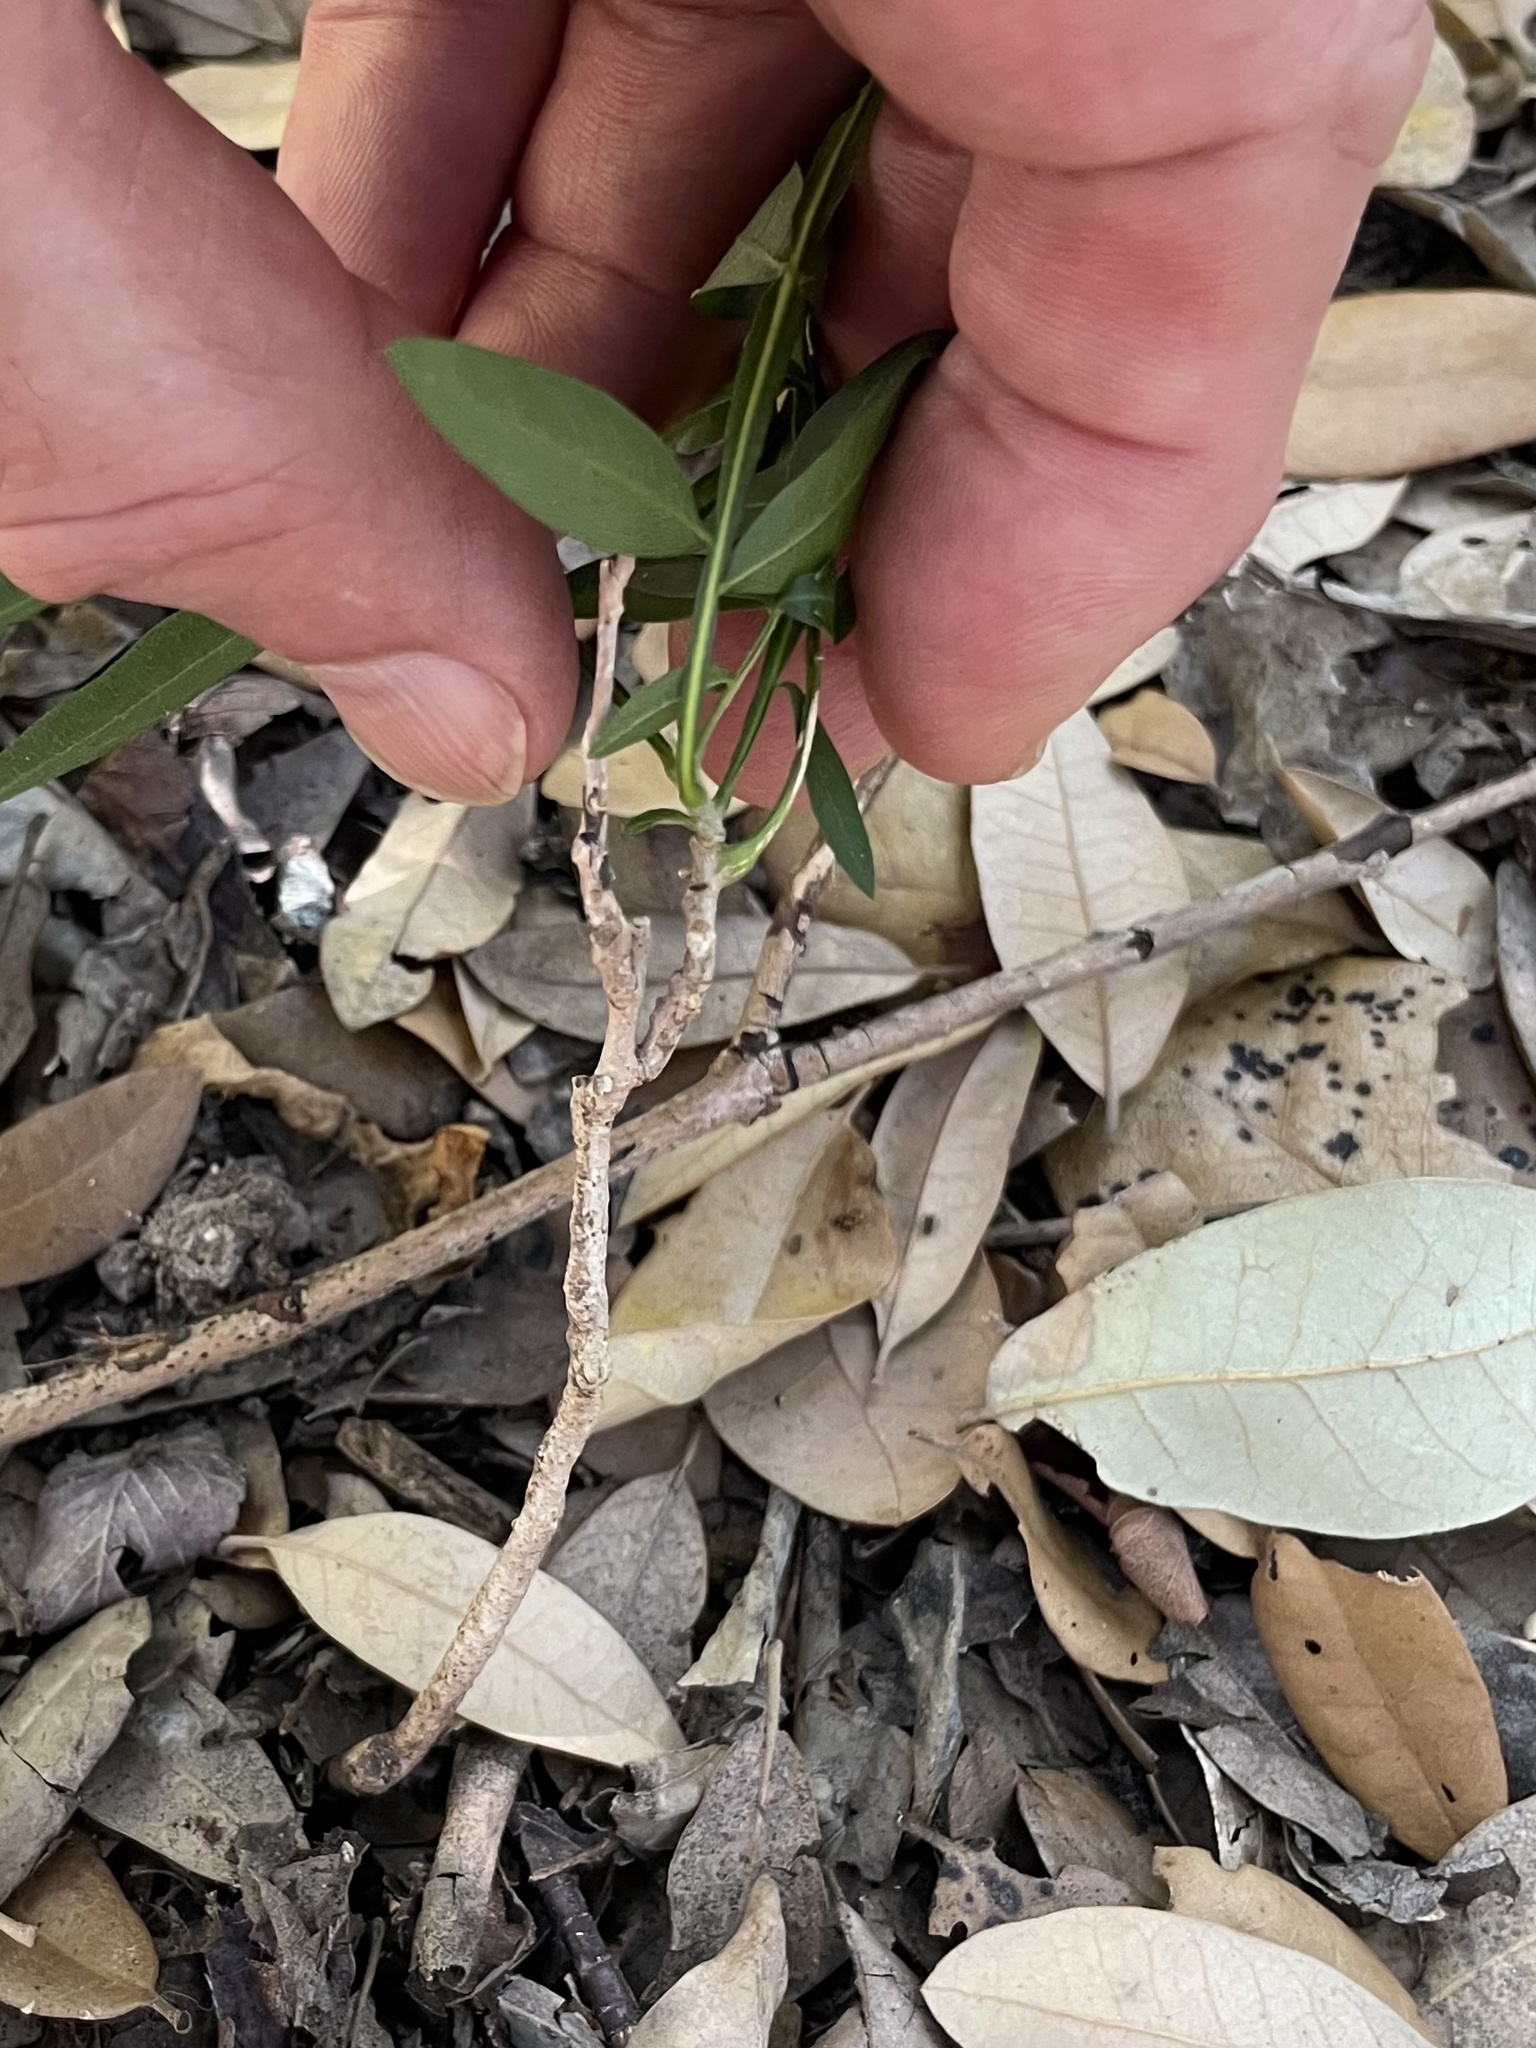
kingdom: Plantae
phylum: Tracheophyta
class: Magnoliopsida
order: Sapindales
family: Sapindaceae
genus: Sapindus
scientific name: Sapindus drummondii
